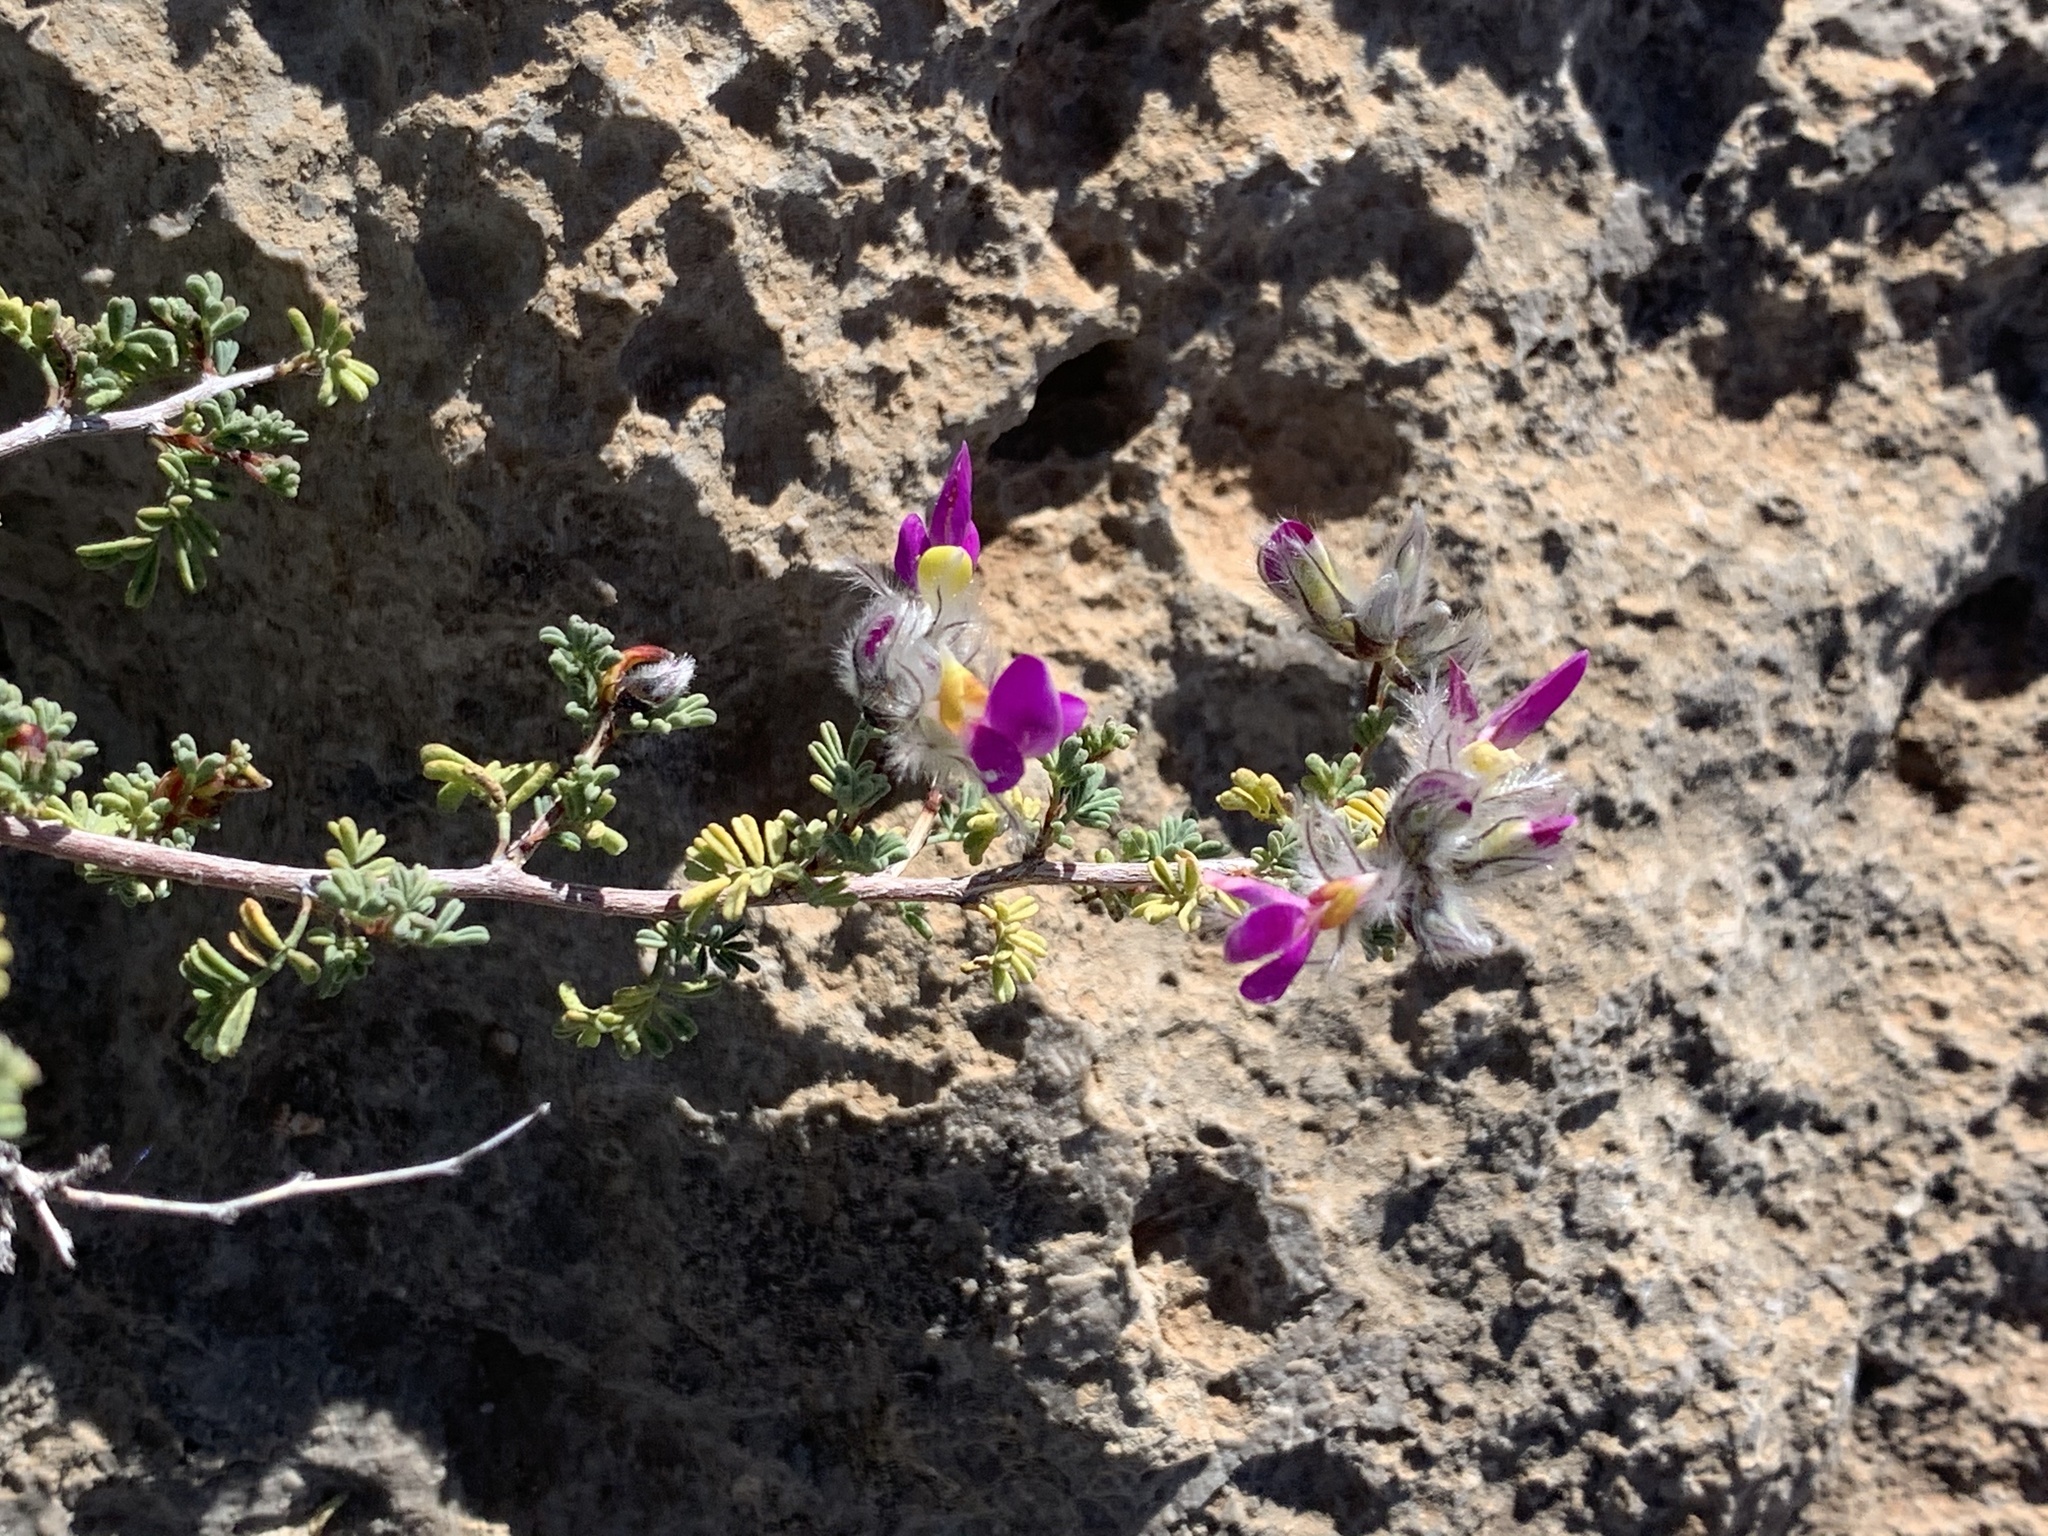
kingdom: Plantae
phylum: Tracheophyta
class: Magnoliopsida
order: Fabales
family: Fabaceae
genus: Dalea
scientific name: Dalea formosa
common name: Feather-plume dalea
